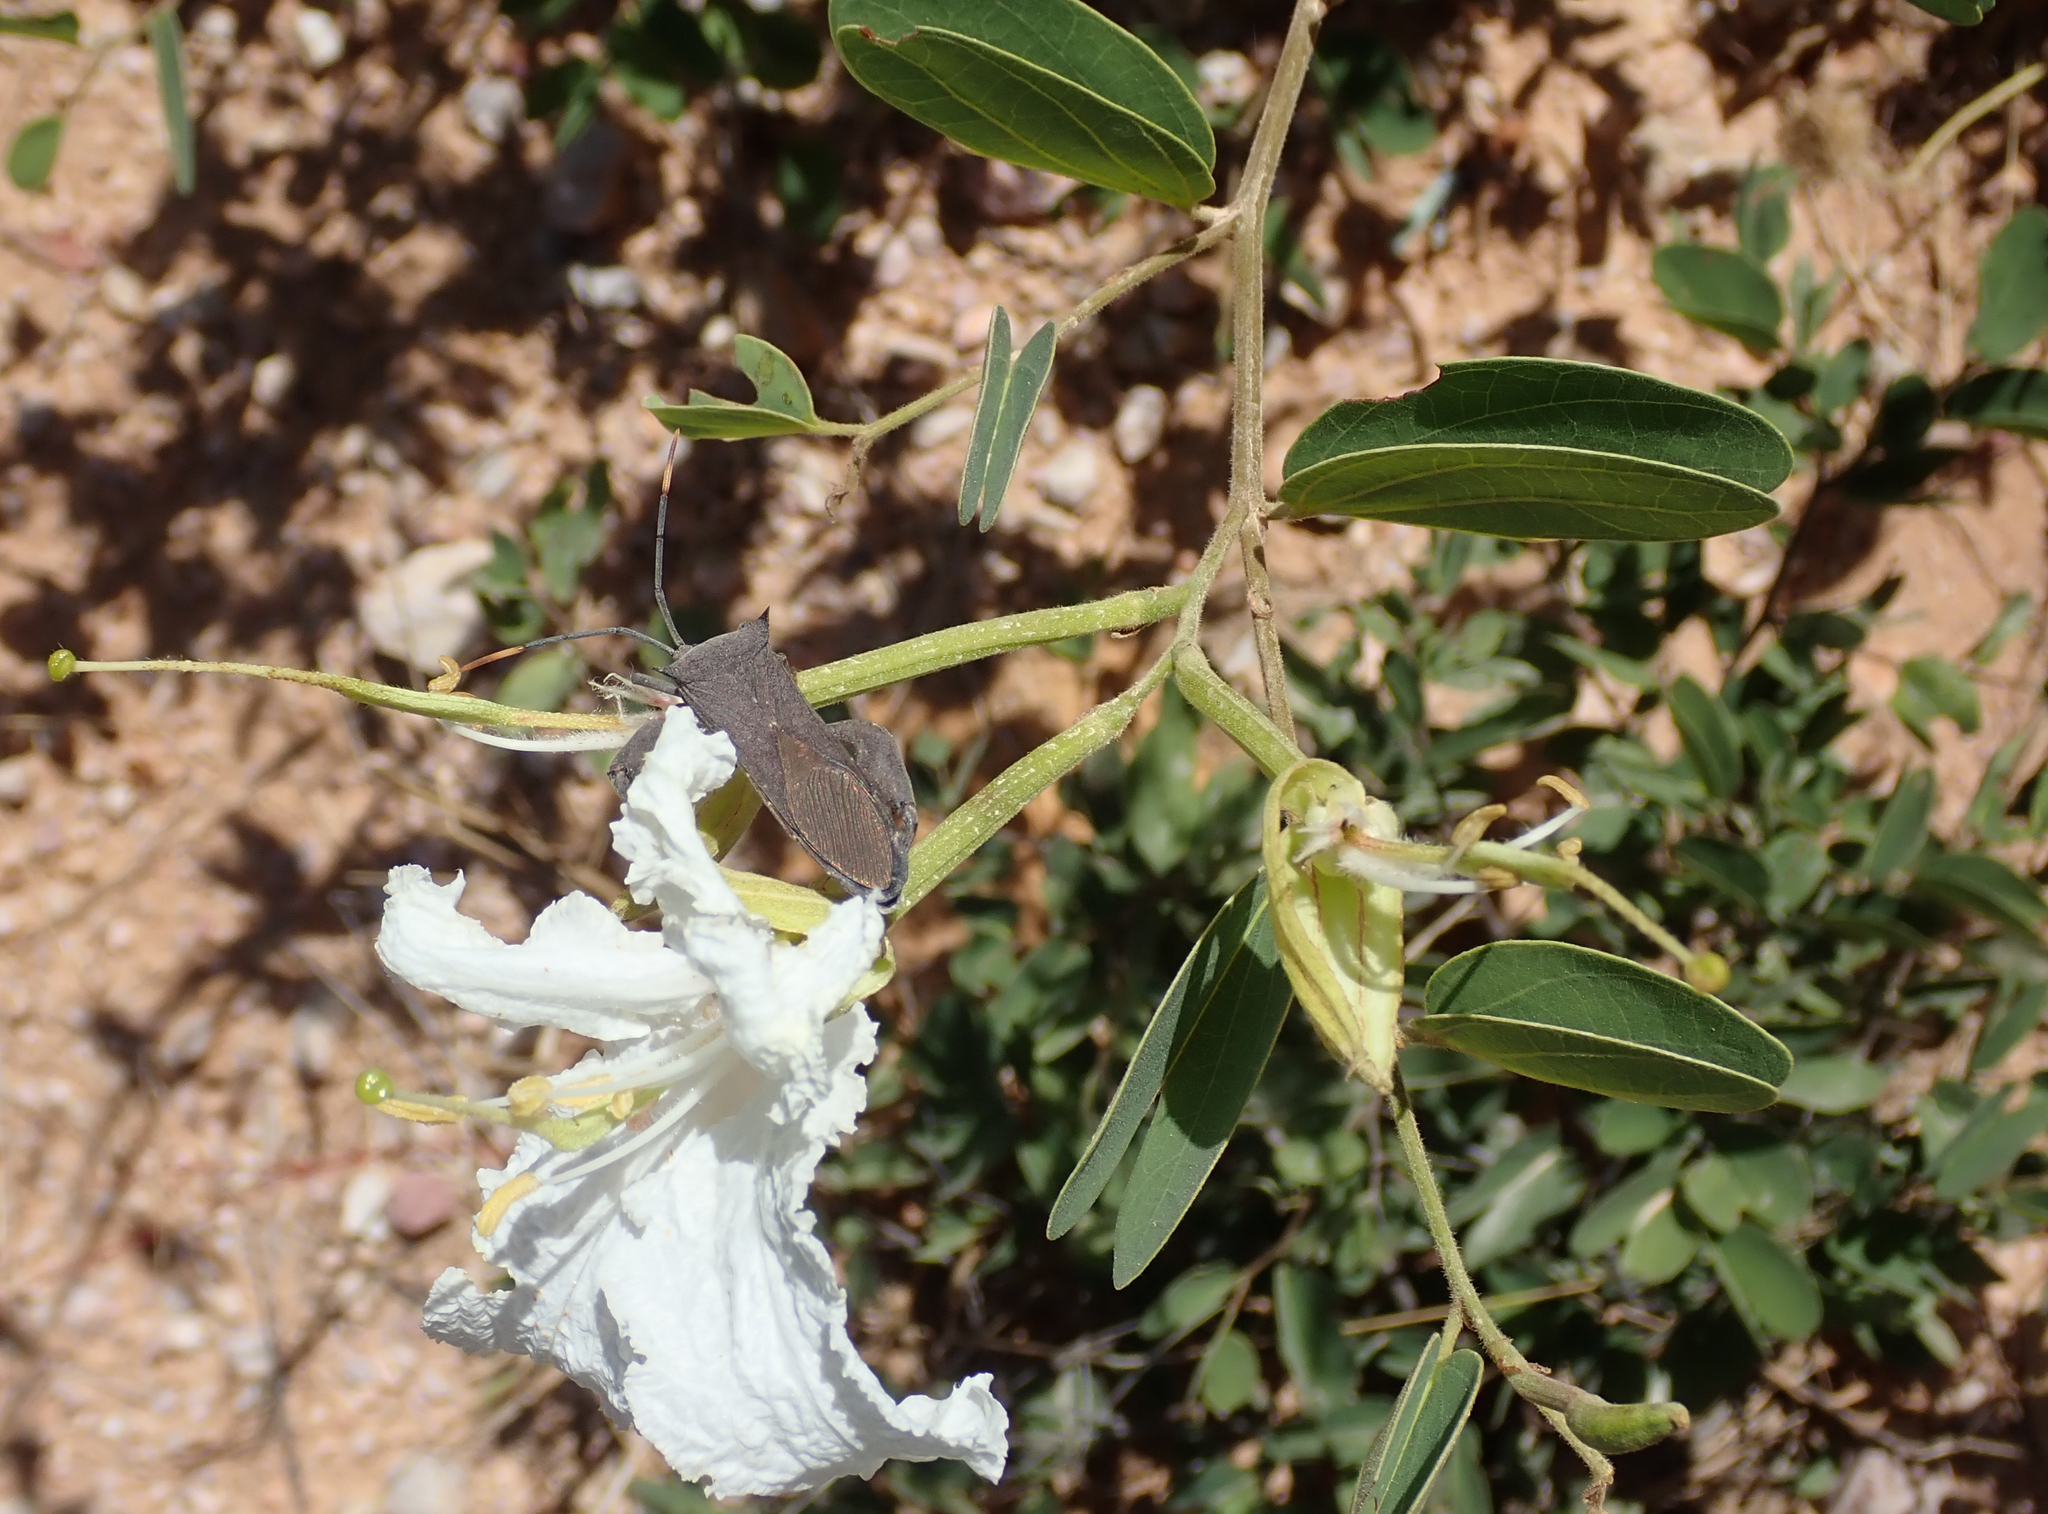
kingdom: Plantae
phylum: Tracheophyta
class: Magnoliopsida
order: Fabales
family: Fabaceae
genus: Bauhinia
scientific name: Bauhinia petersiana
